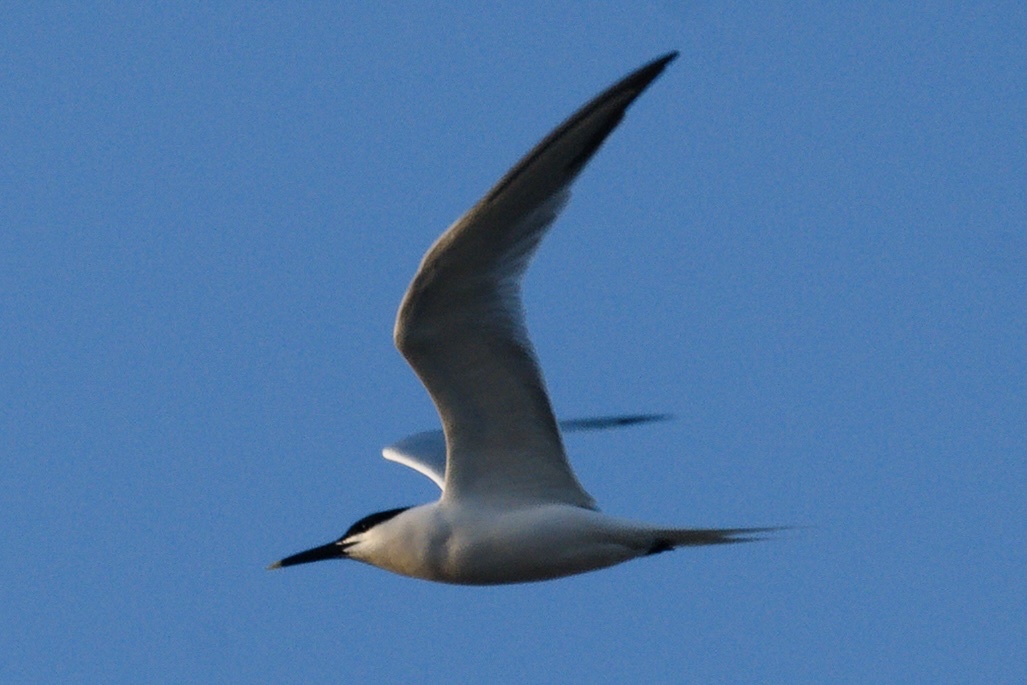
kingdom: Animalia
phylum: Chordata
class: Aves
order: Charadriiformes
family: Laridae
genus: Thalasseus
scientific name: Thalasseus sandvicensis
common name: Sandwich tern
